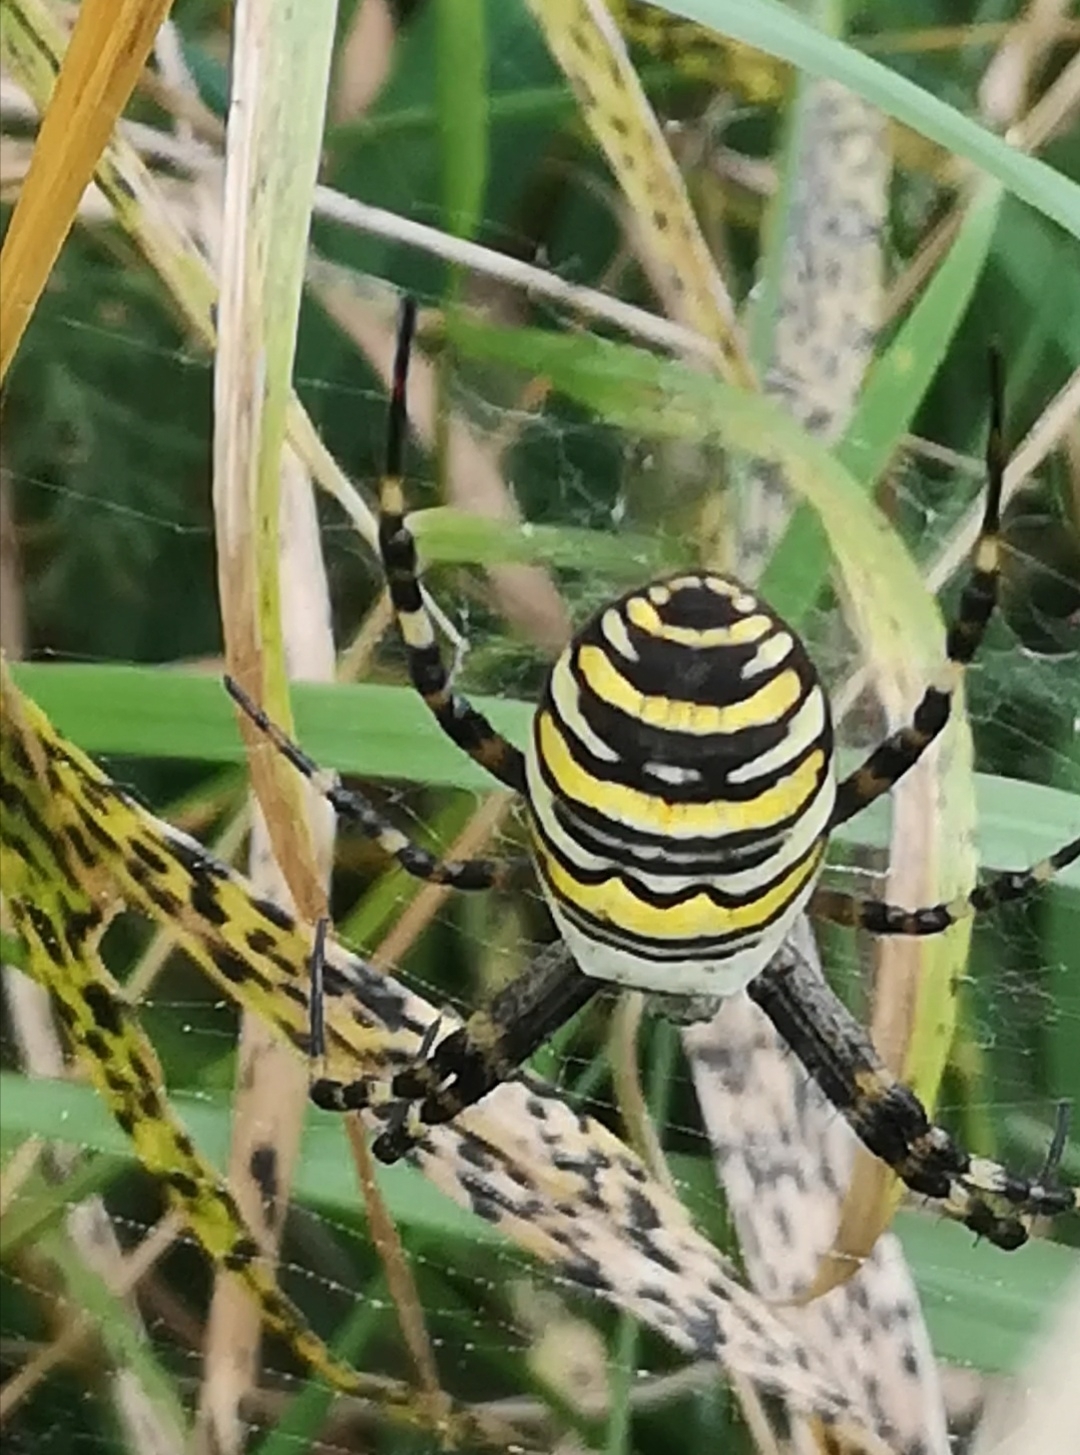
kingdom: Animalia
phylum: Arthropoda
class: Arachnida
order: Araneae
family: Araneidae
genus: Argiope
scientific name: Argiope bruennichi
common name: Wasp spider
